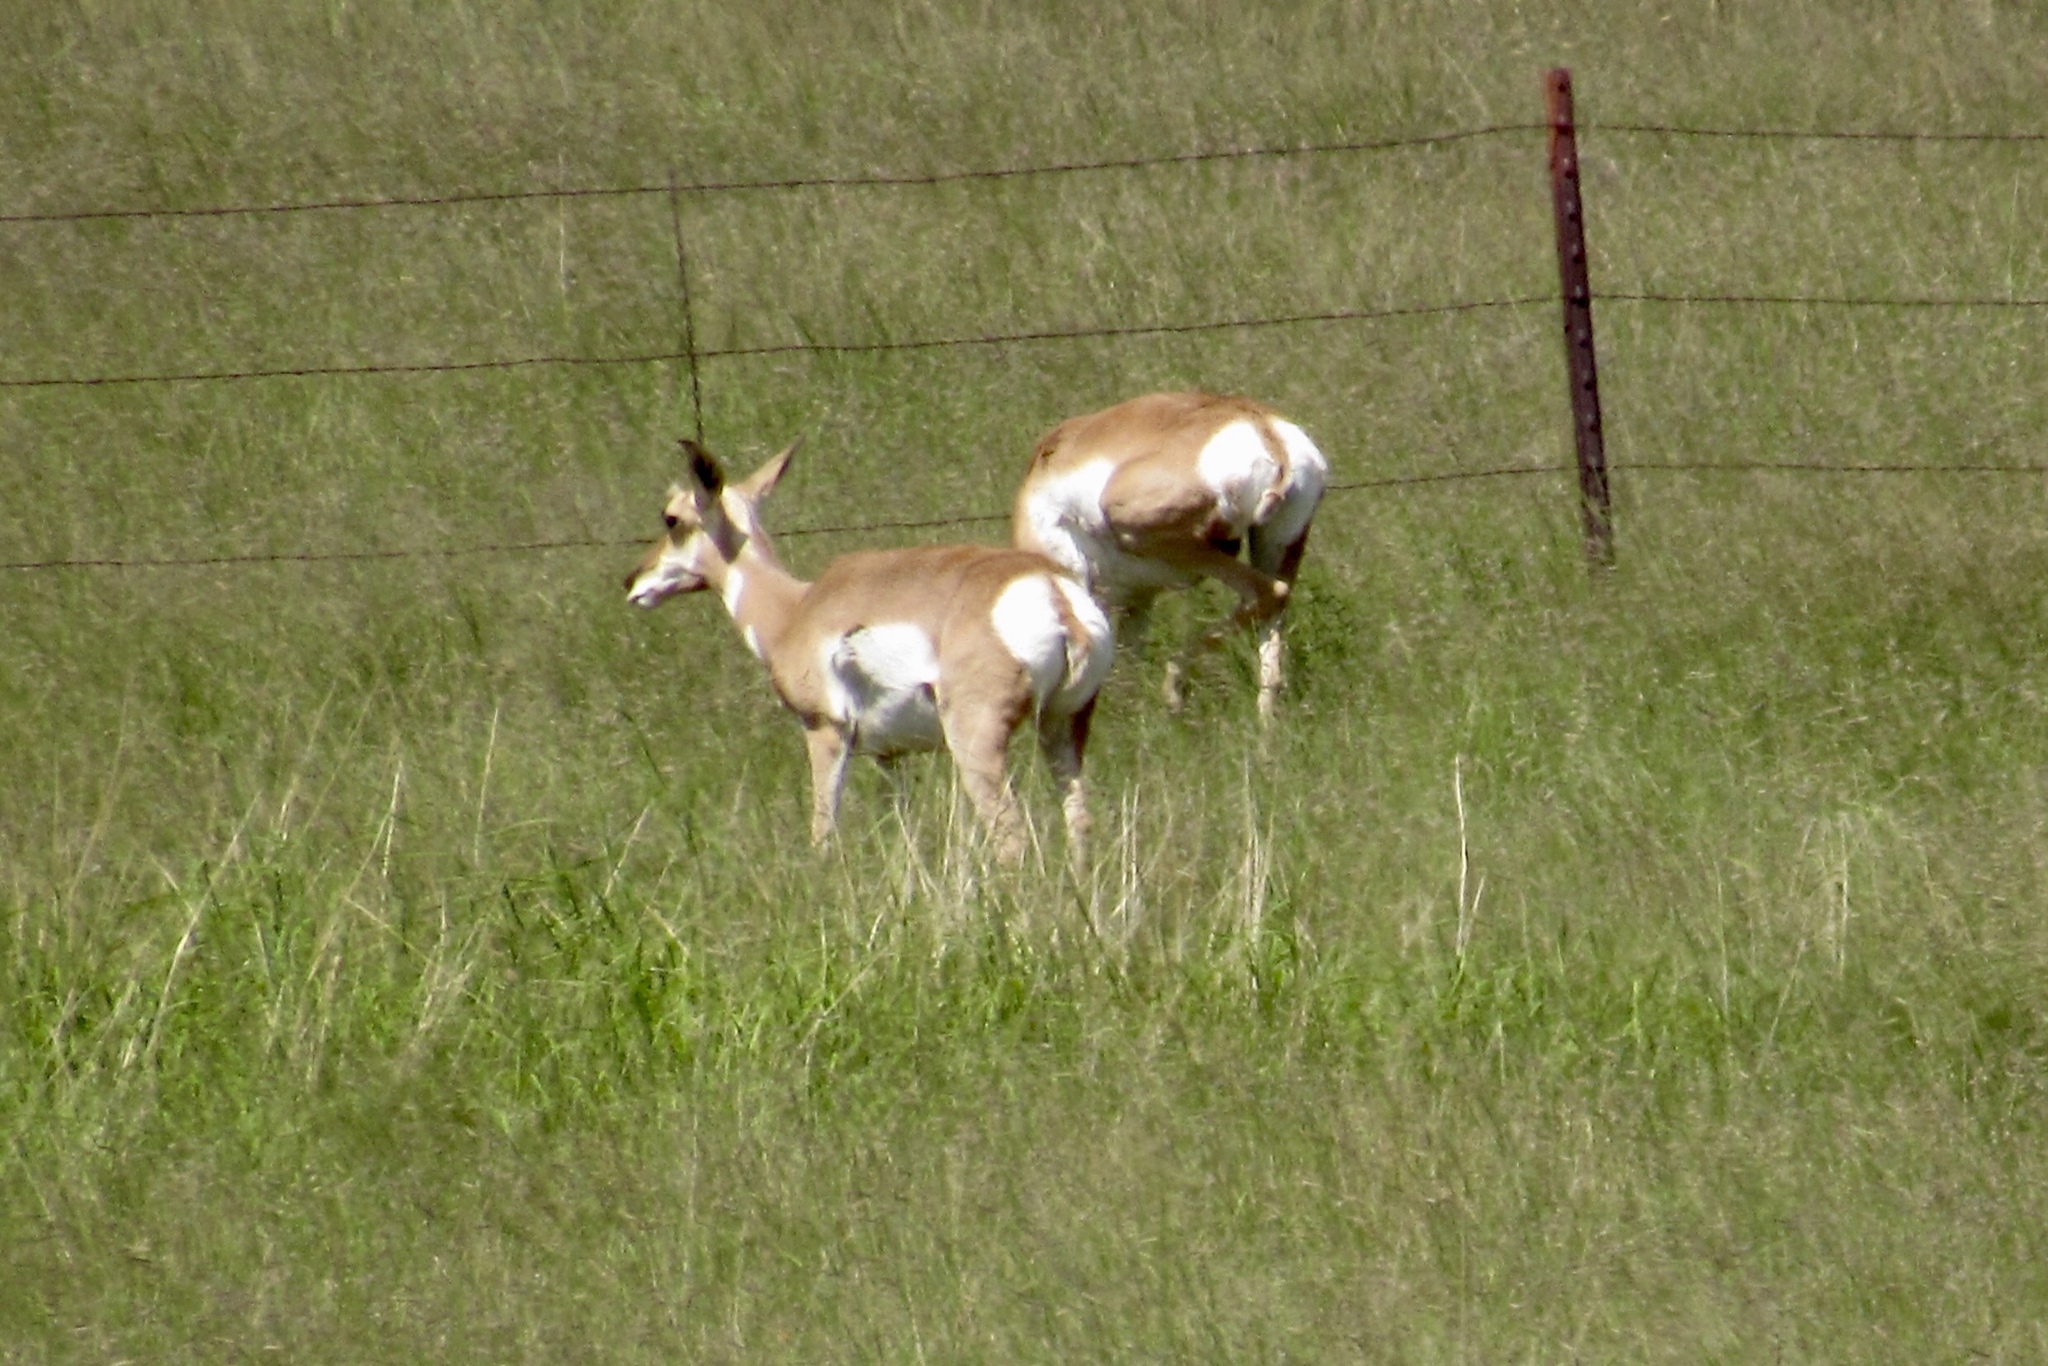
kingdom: Animalia
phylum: Chordata
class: Mammalia
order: Artiodactyla
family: Antilocapridae
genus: Antilocapra
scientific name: Antilocapra americana
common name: Pronghorn
